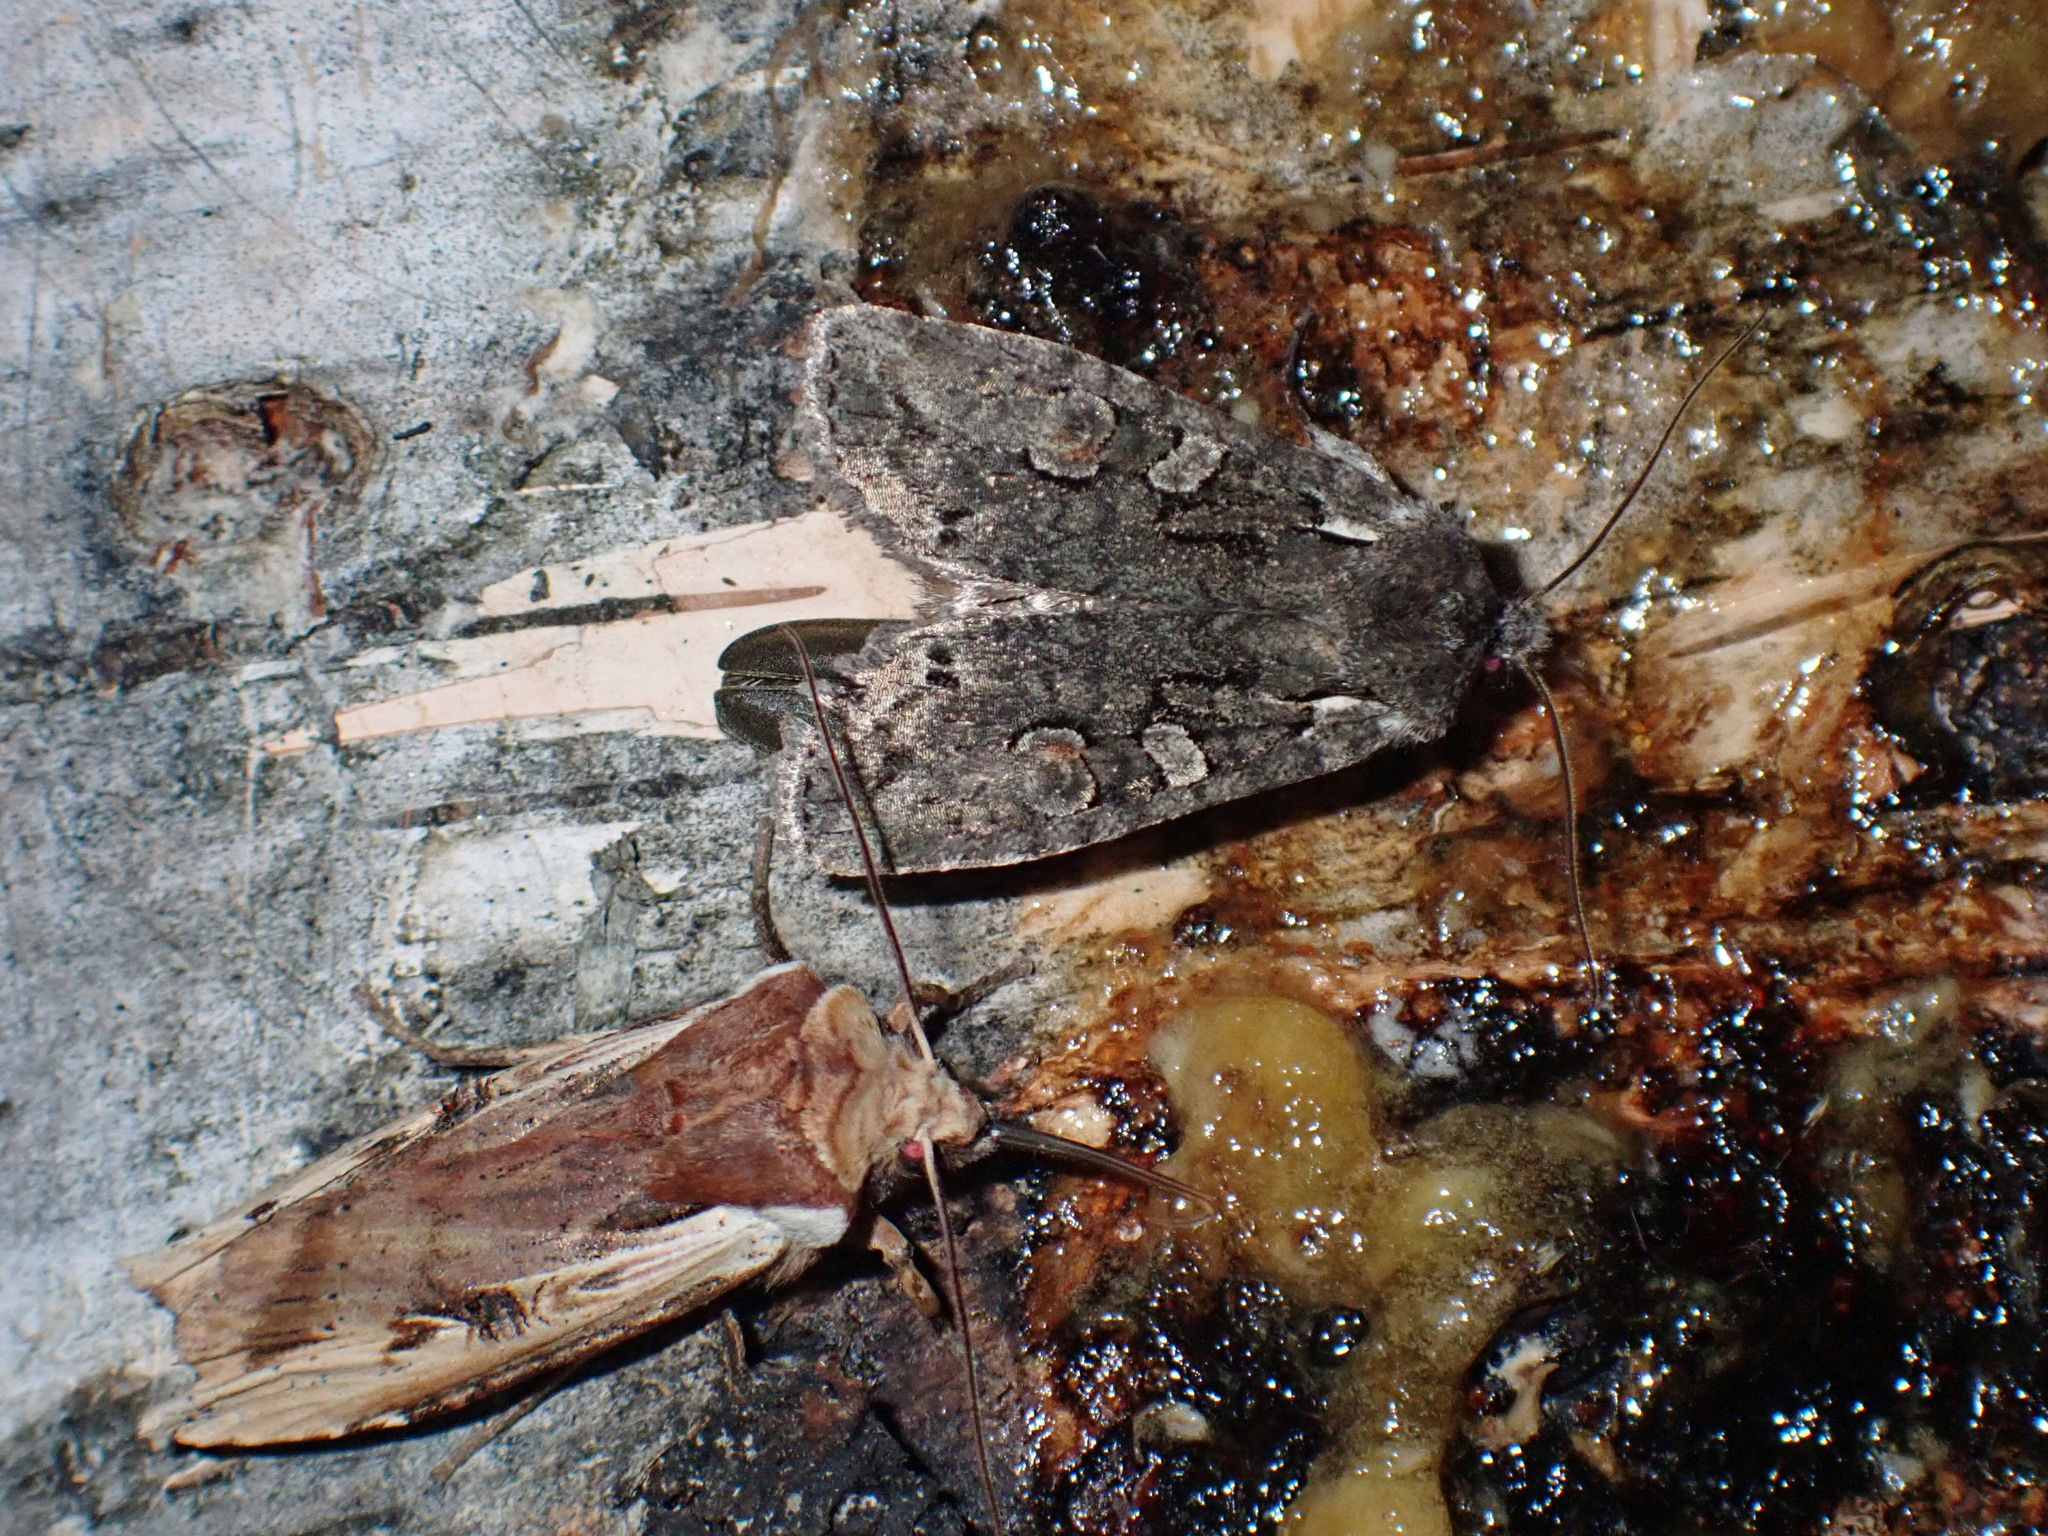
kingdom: Animalia
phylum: Arthropoda
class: Insecta
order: Lepidoptera
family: Noctuidae
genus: Xylena
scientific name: Xylena curvimacula
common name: Dot-and-dash swordgrass moth
